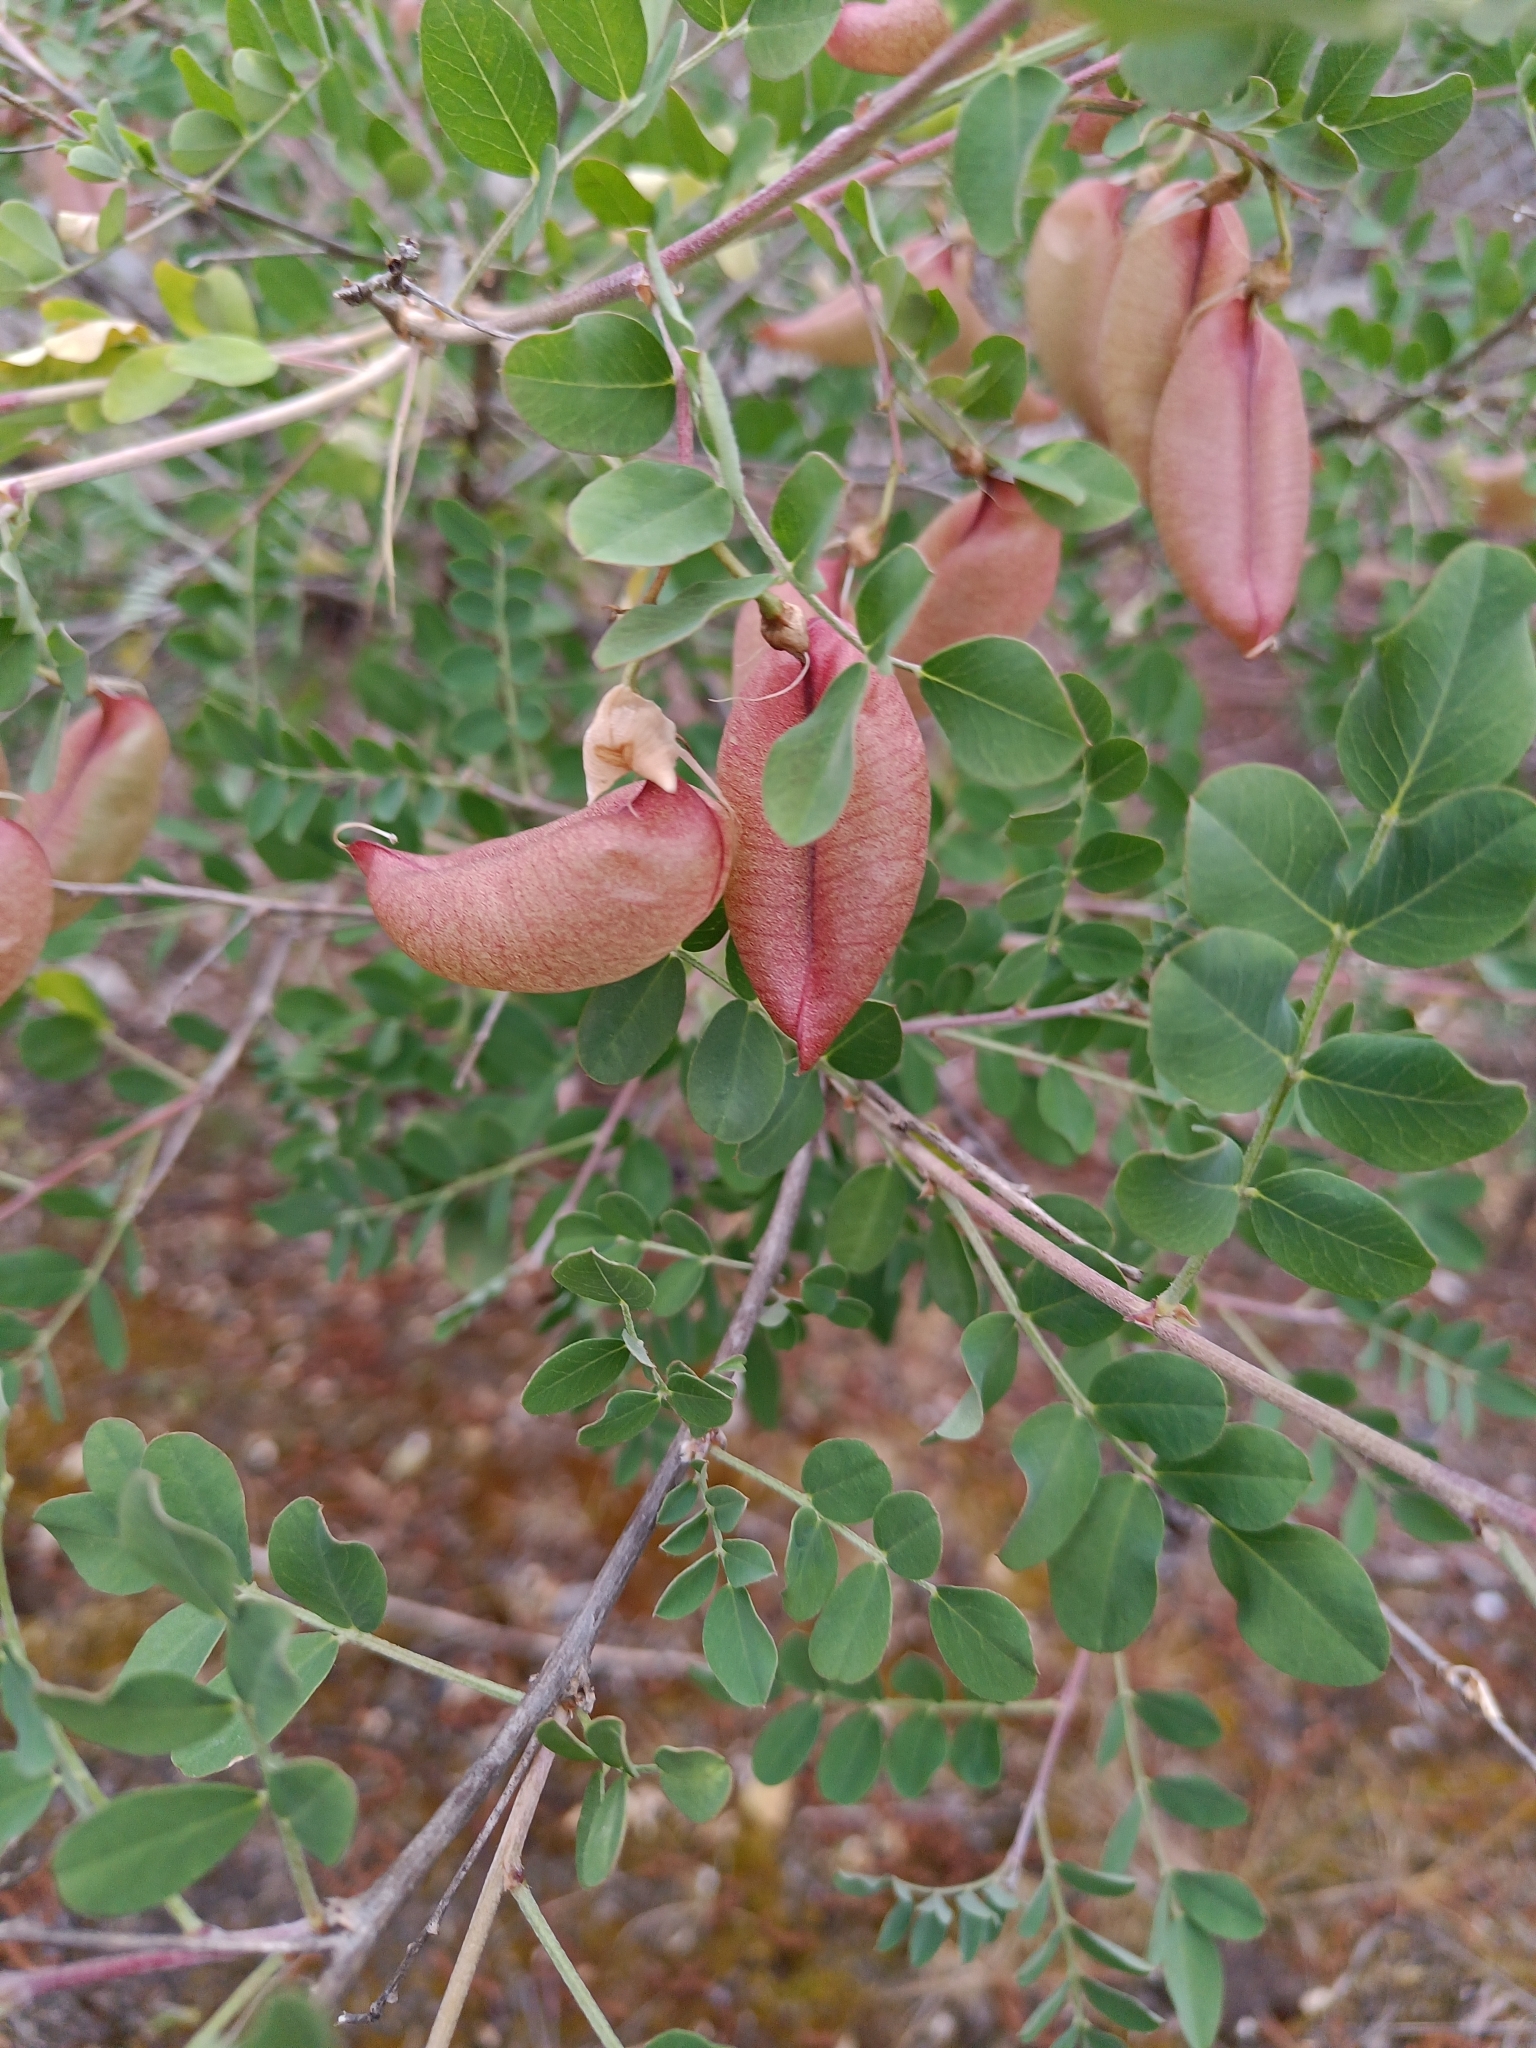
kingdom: Plantae
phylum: Tracheophyta
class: Magnoliopsida
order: Fabales
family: Fabaceae
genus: Colutea
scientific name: Colutea arborescens
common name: Bladder-senna
